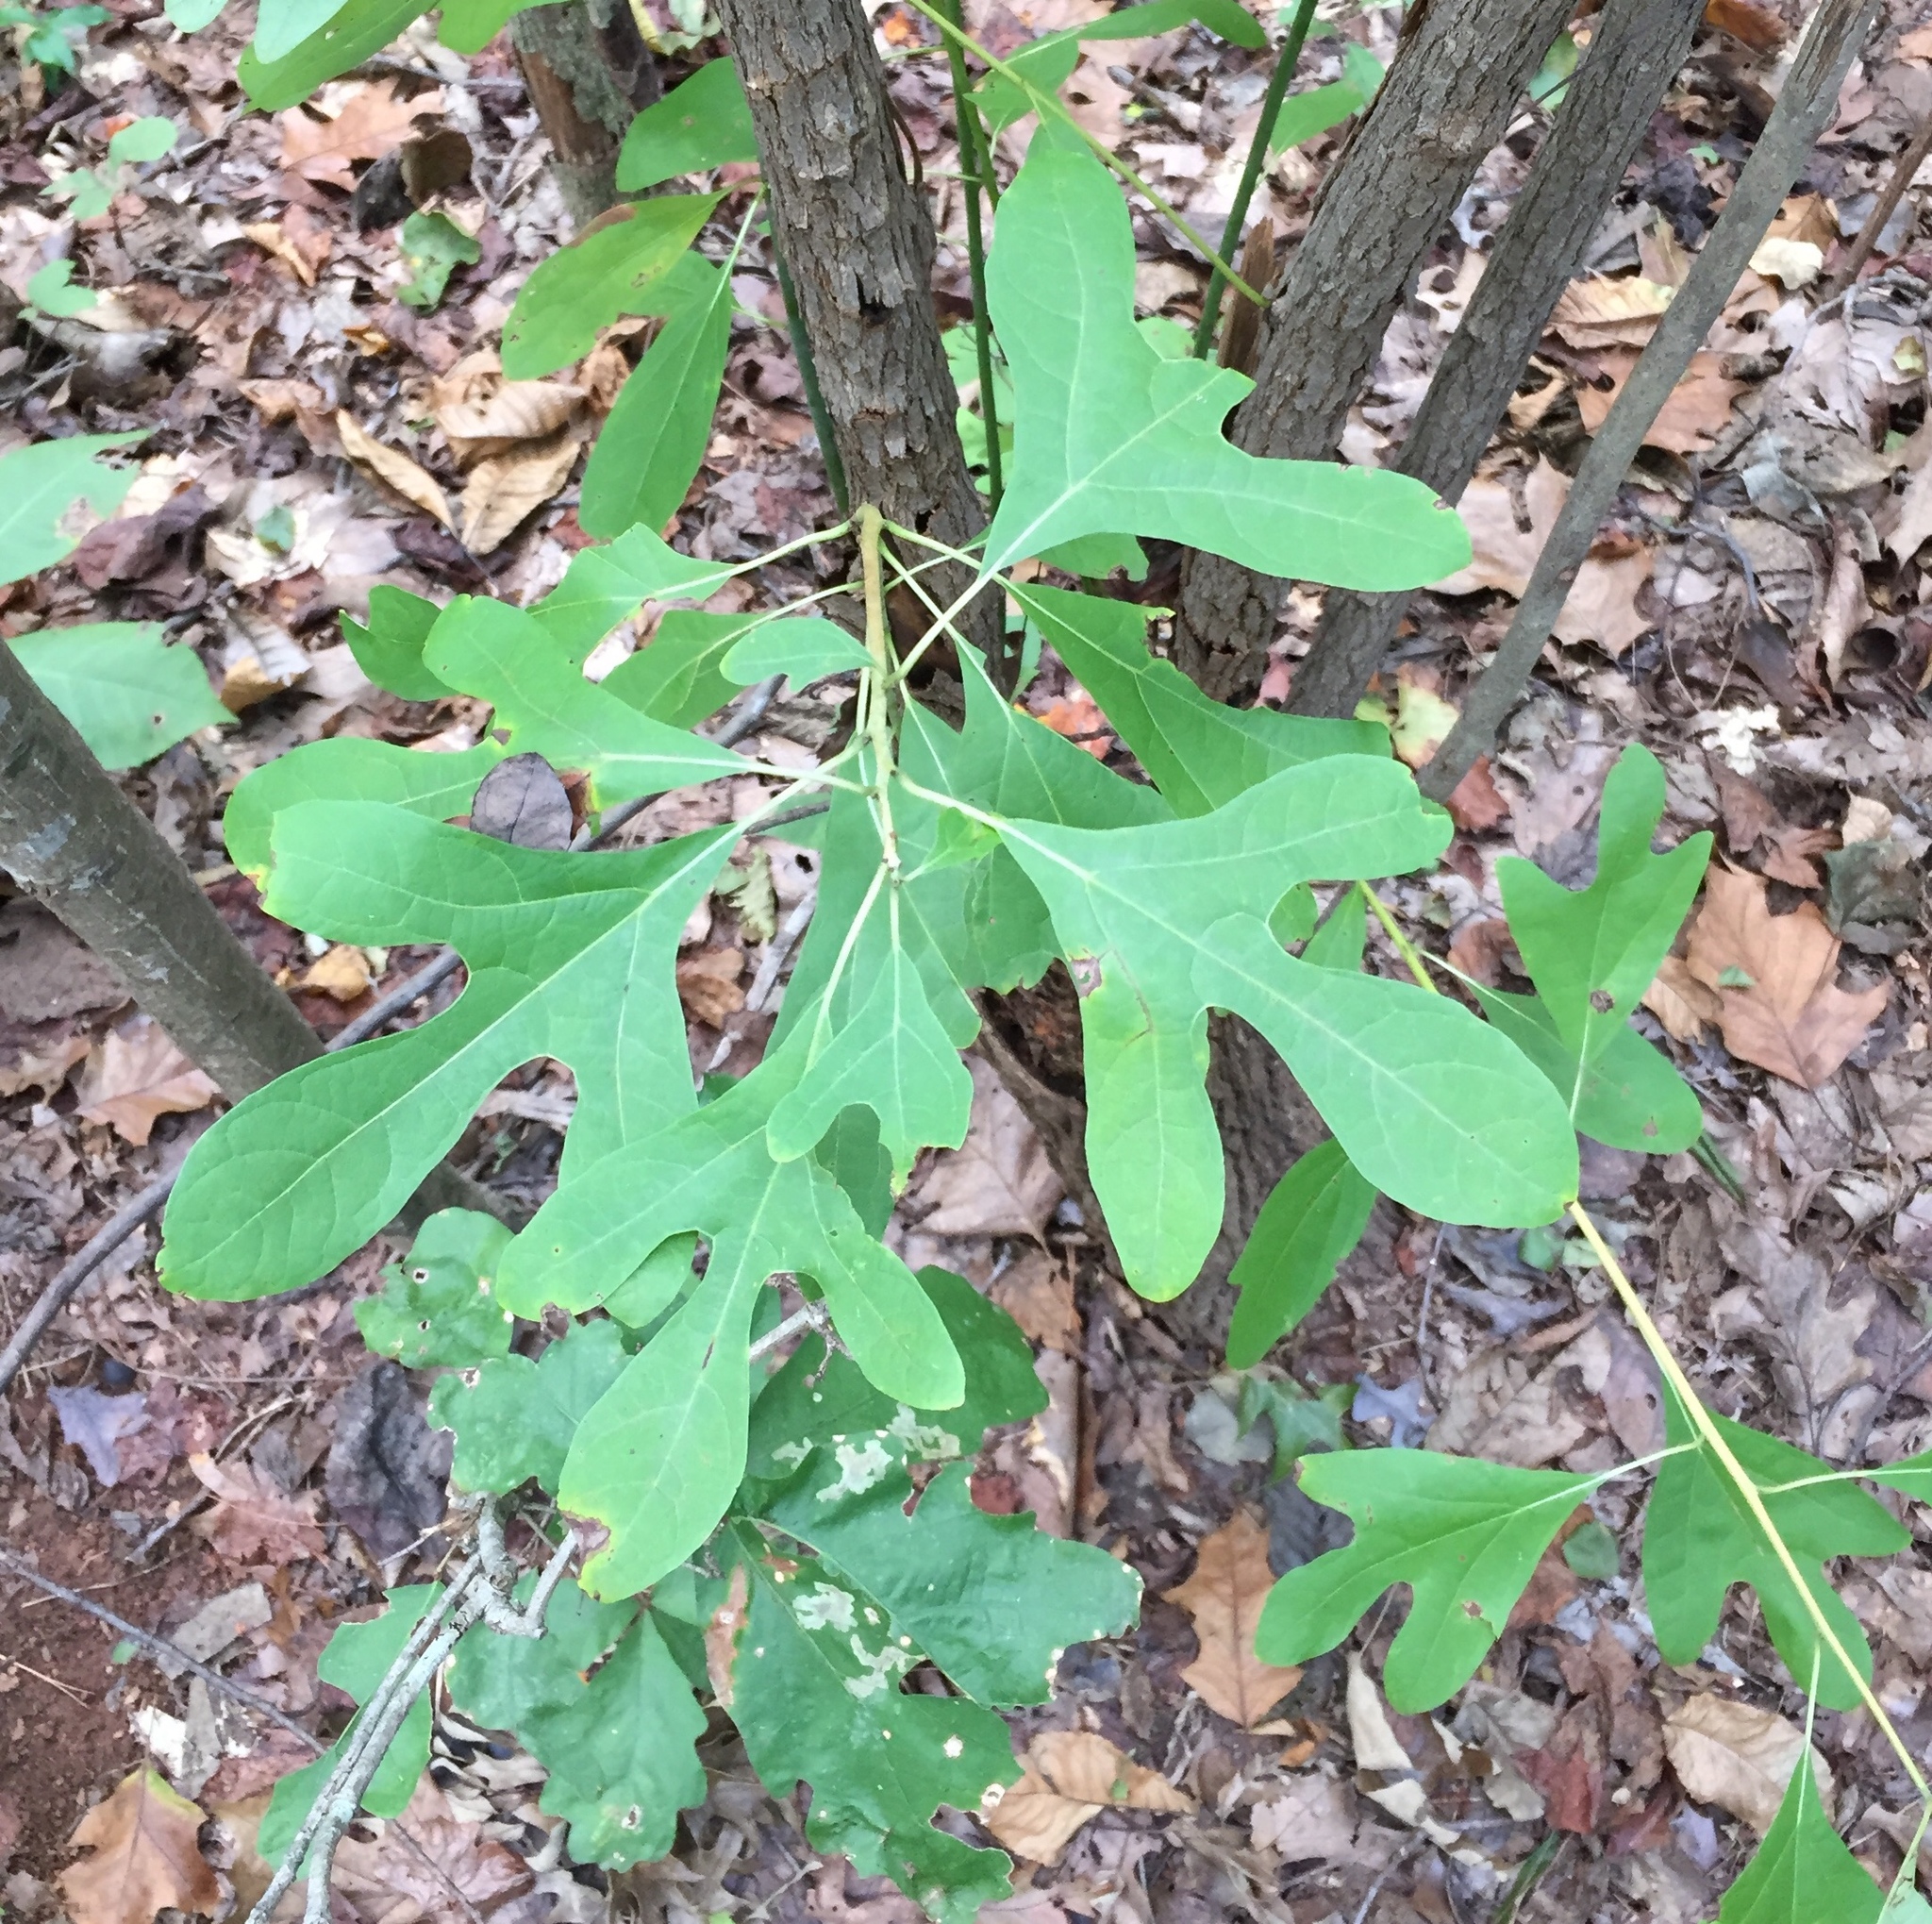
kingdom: Plantae
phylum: Tracheophyta
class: Magnoliopsida
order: Laurales
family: Lauraceae
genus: Sassafras
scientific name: Sassafras albidum
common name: Sassafras
